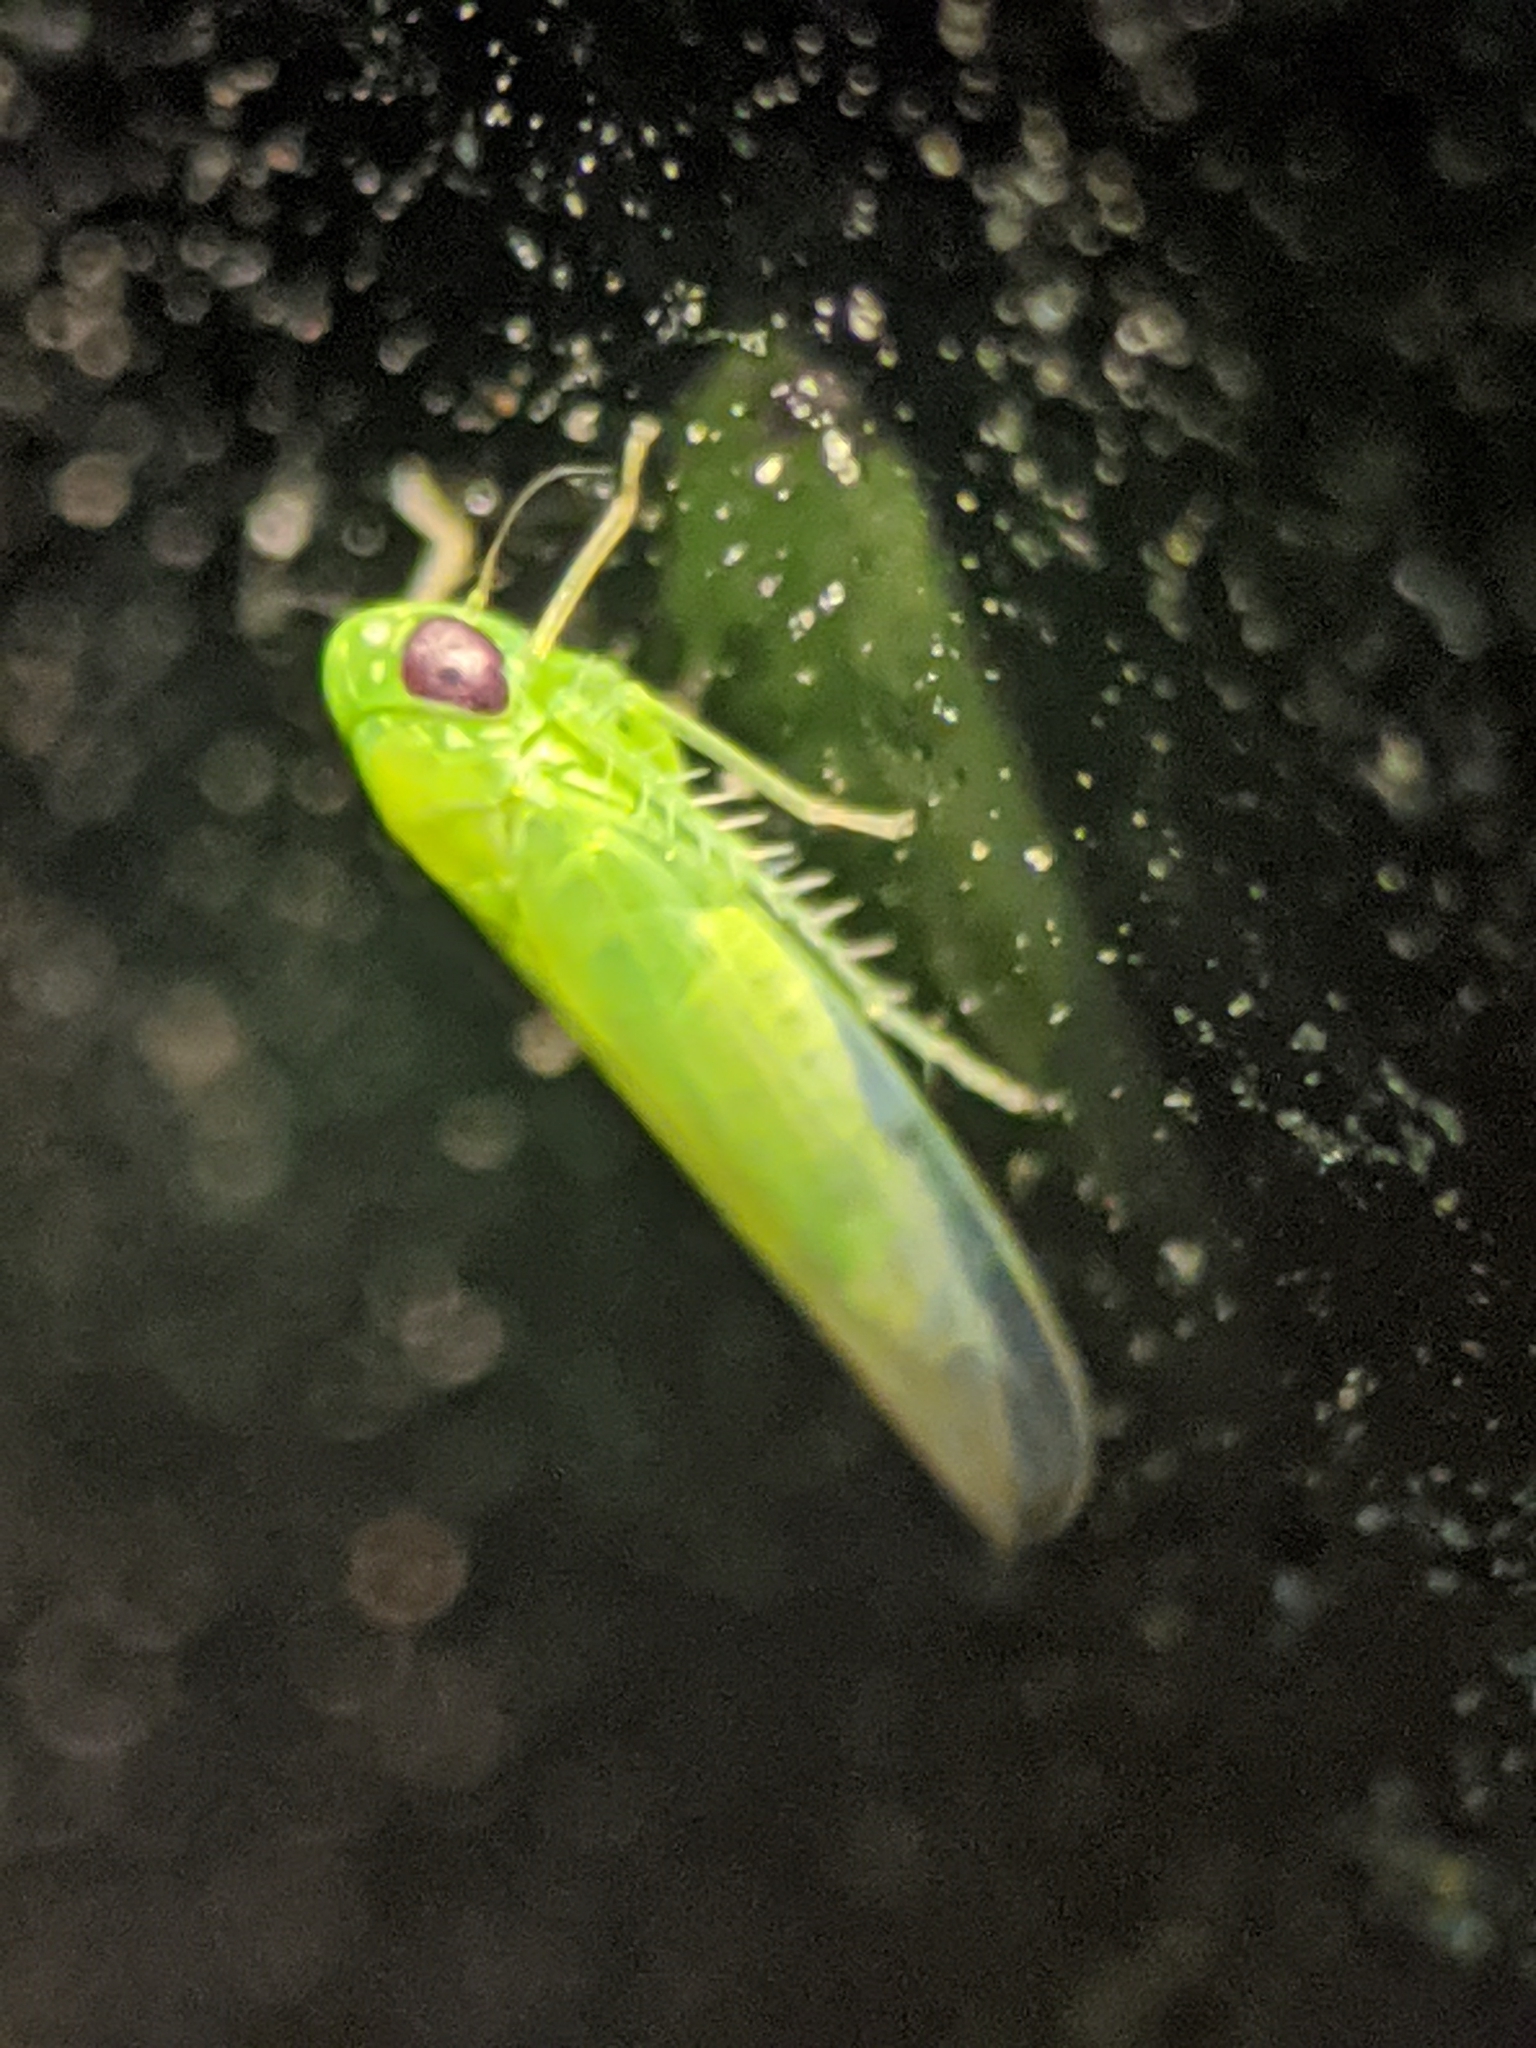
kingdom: Animalia
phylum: Arthropoda
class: Insecta
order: Hemiptera
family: Cicadellidae
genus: Empoasca
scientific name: Empoasca fabae
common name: Potato leafhopper
